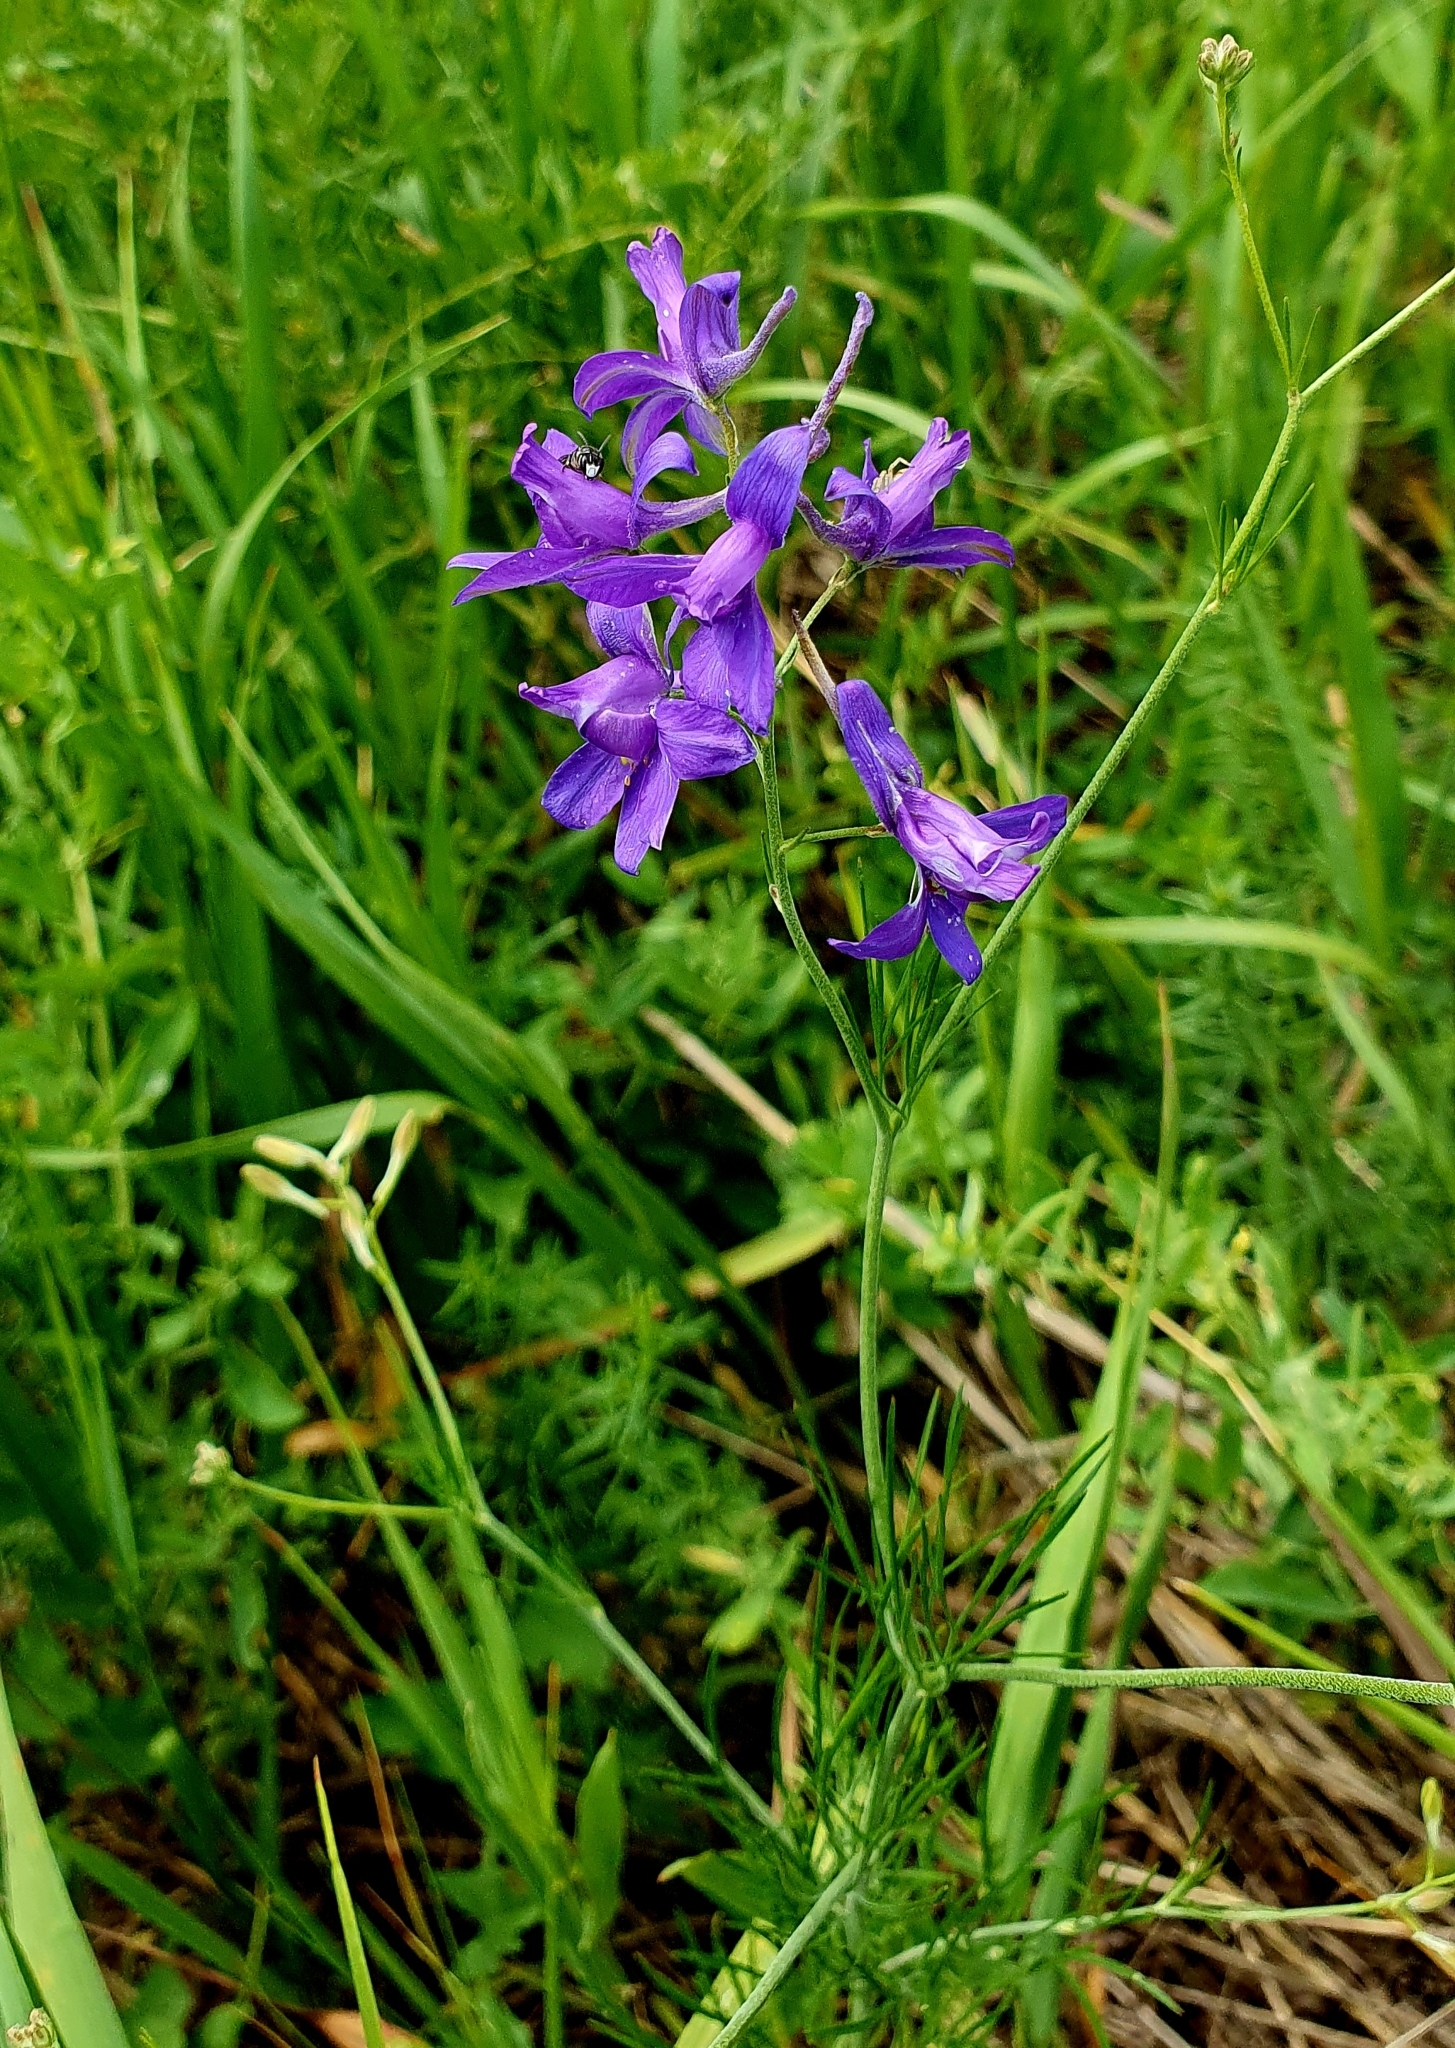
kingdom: Plantae
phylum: Tracheophyta
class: Magnoliopsida
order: Ranunculales
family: Ranunculaceae
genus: Delphinium
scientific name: Delphinium consolida
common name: Branching larkspur
